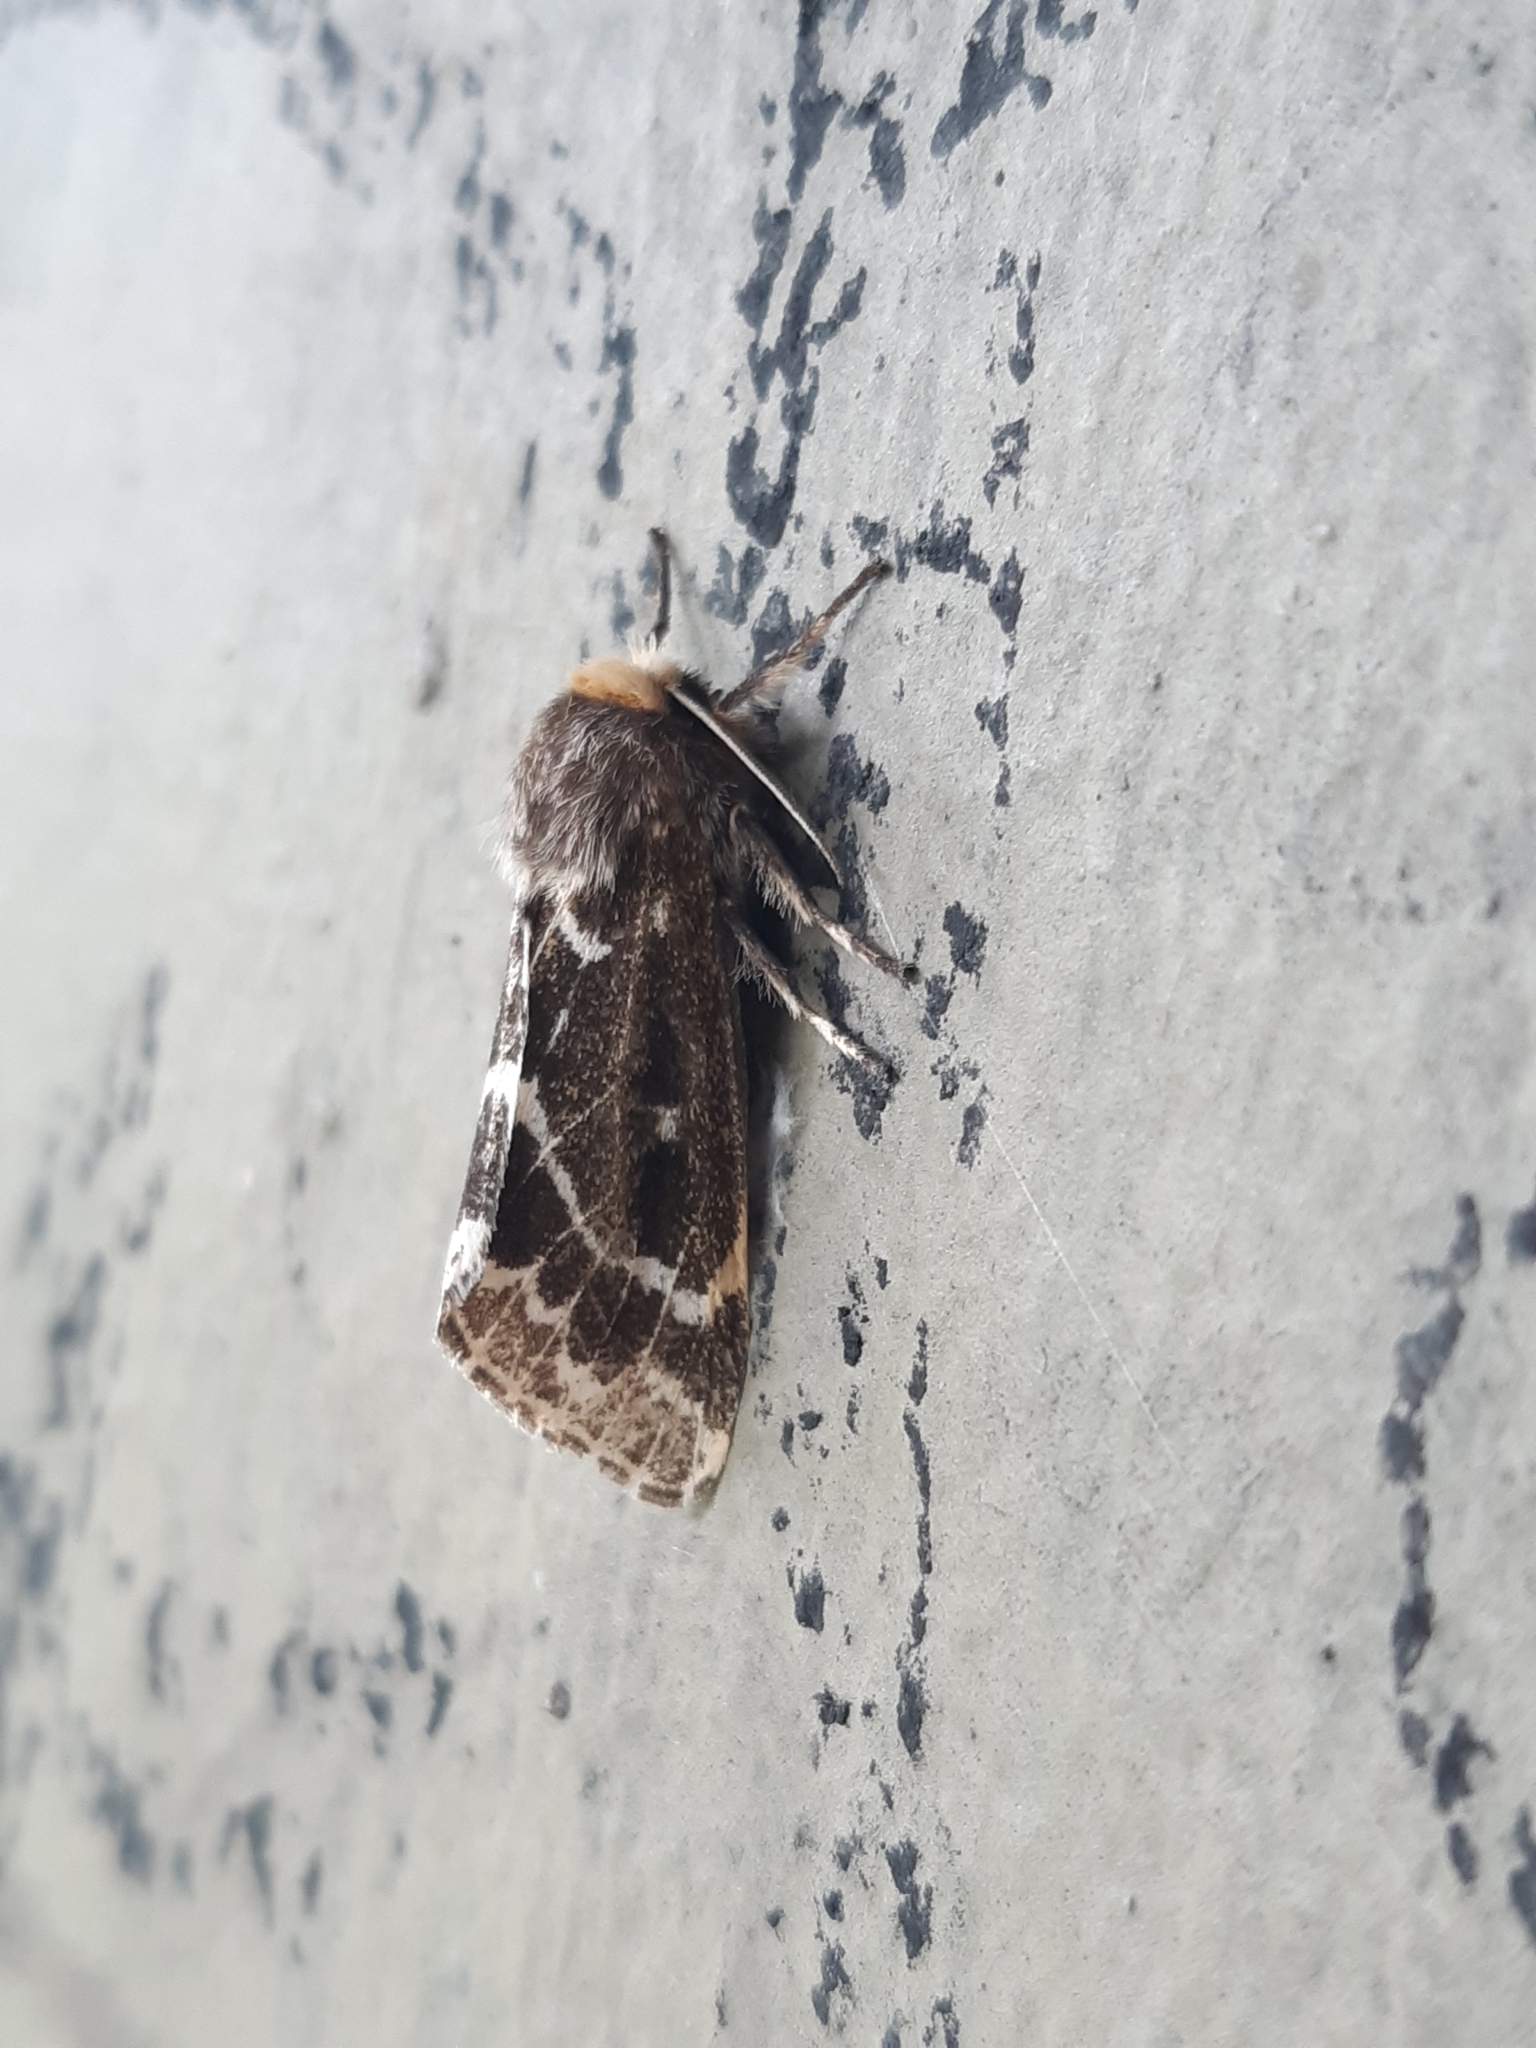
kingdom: Animalia
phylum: Arthropoda
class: Insecta
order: Lepidoptera
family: Erebidae
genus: Paracles
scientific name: Paracles variegata
